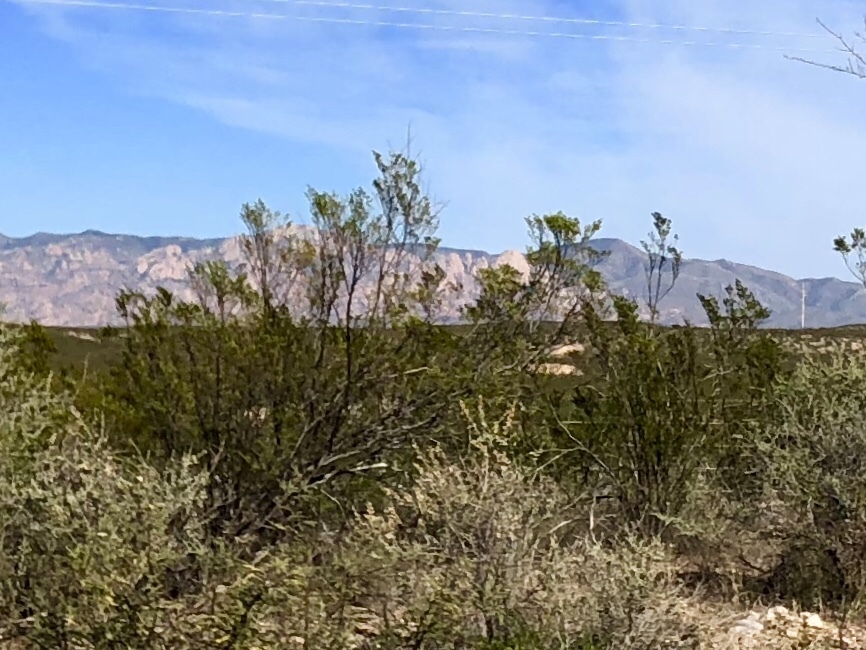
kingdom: Plantae
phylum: Tracheophyta
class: Magnoliopsida
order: Zygophyllales
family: Zygophyllaceae
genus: Larrea
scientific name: Larrea tridentata
